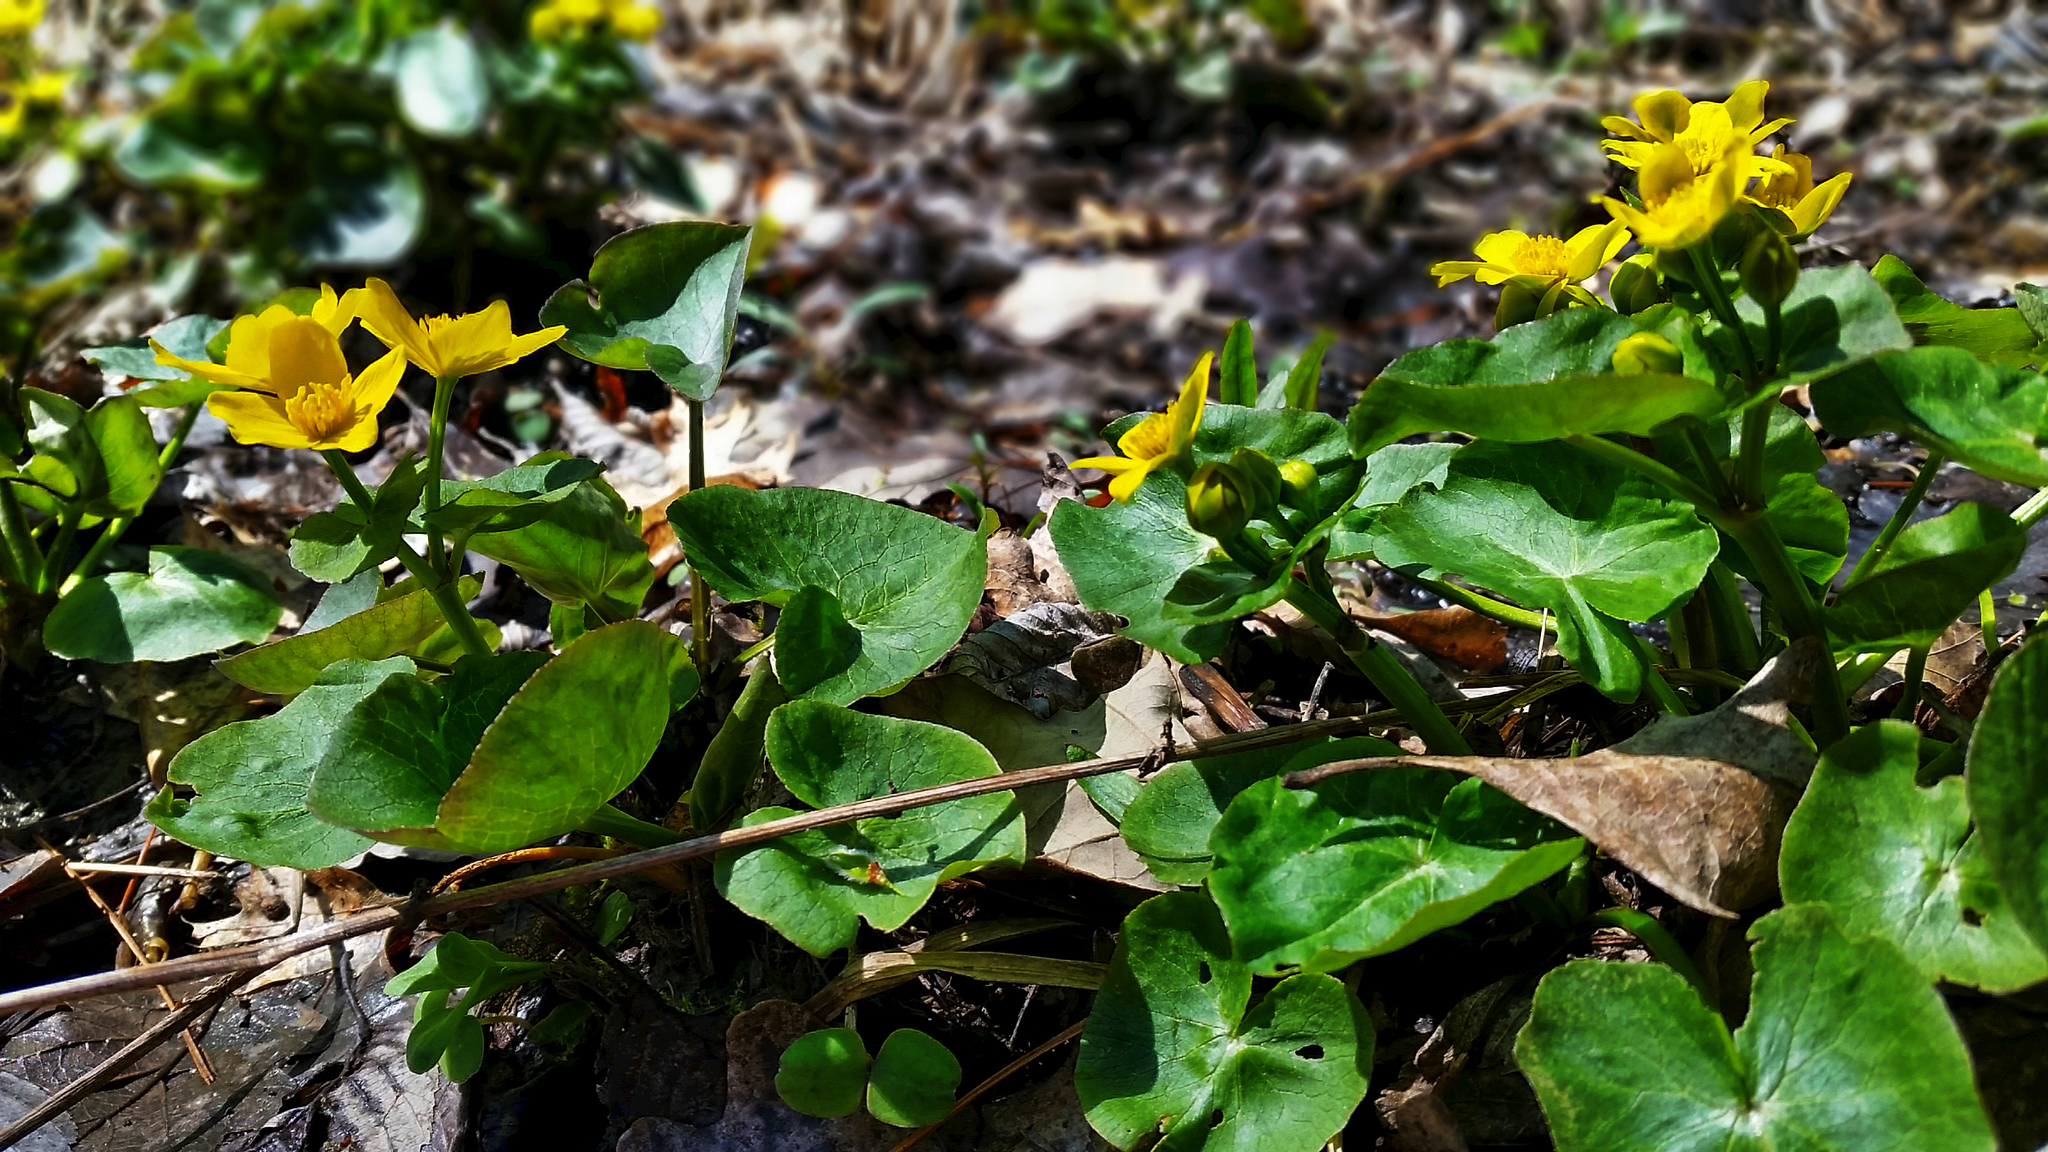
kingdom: Plantae
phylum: Tracheophyta
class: Magnoliopsida
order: Ranunculales
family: Ranunculaceae
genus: Caltha
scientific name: Caltha palustris
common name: Marsh marigold
